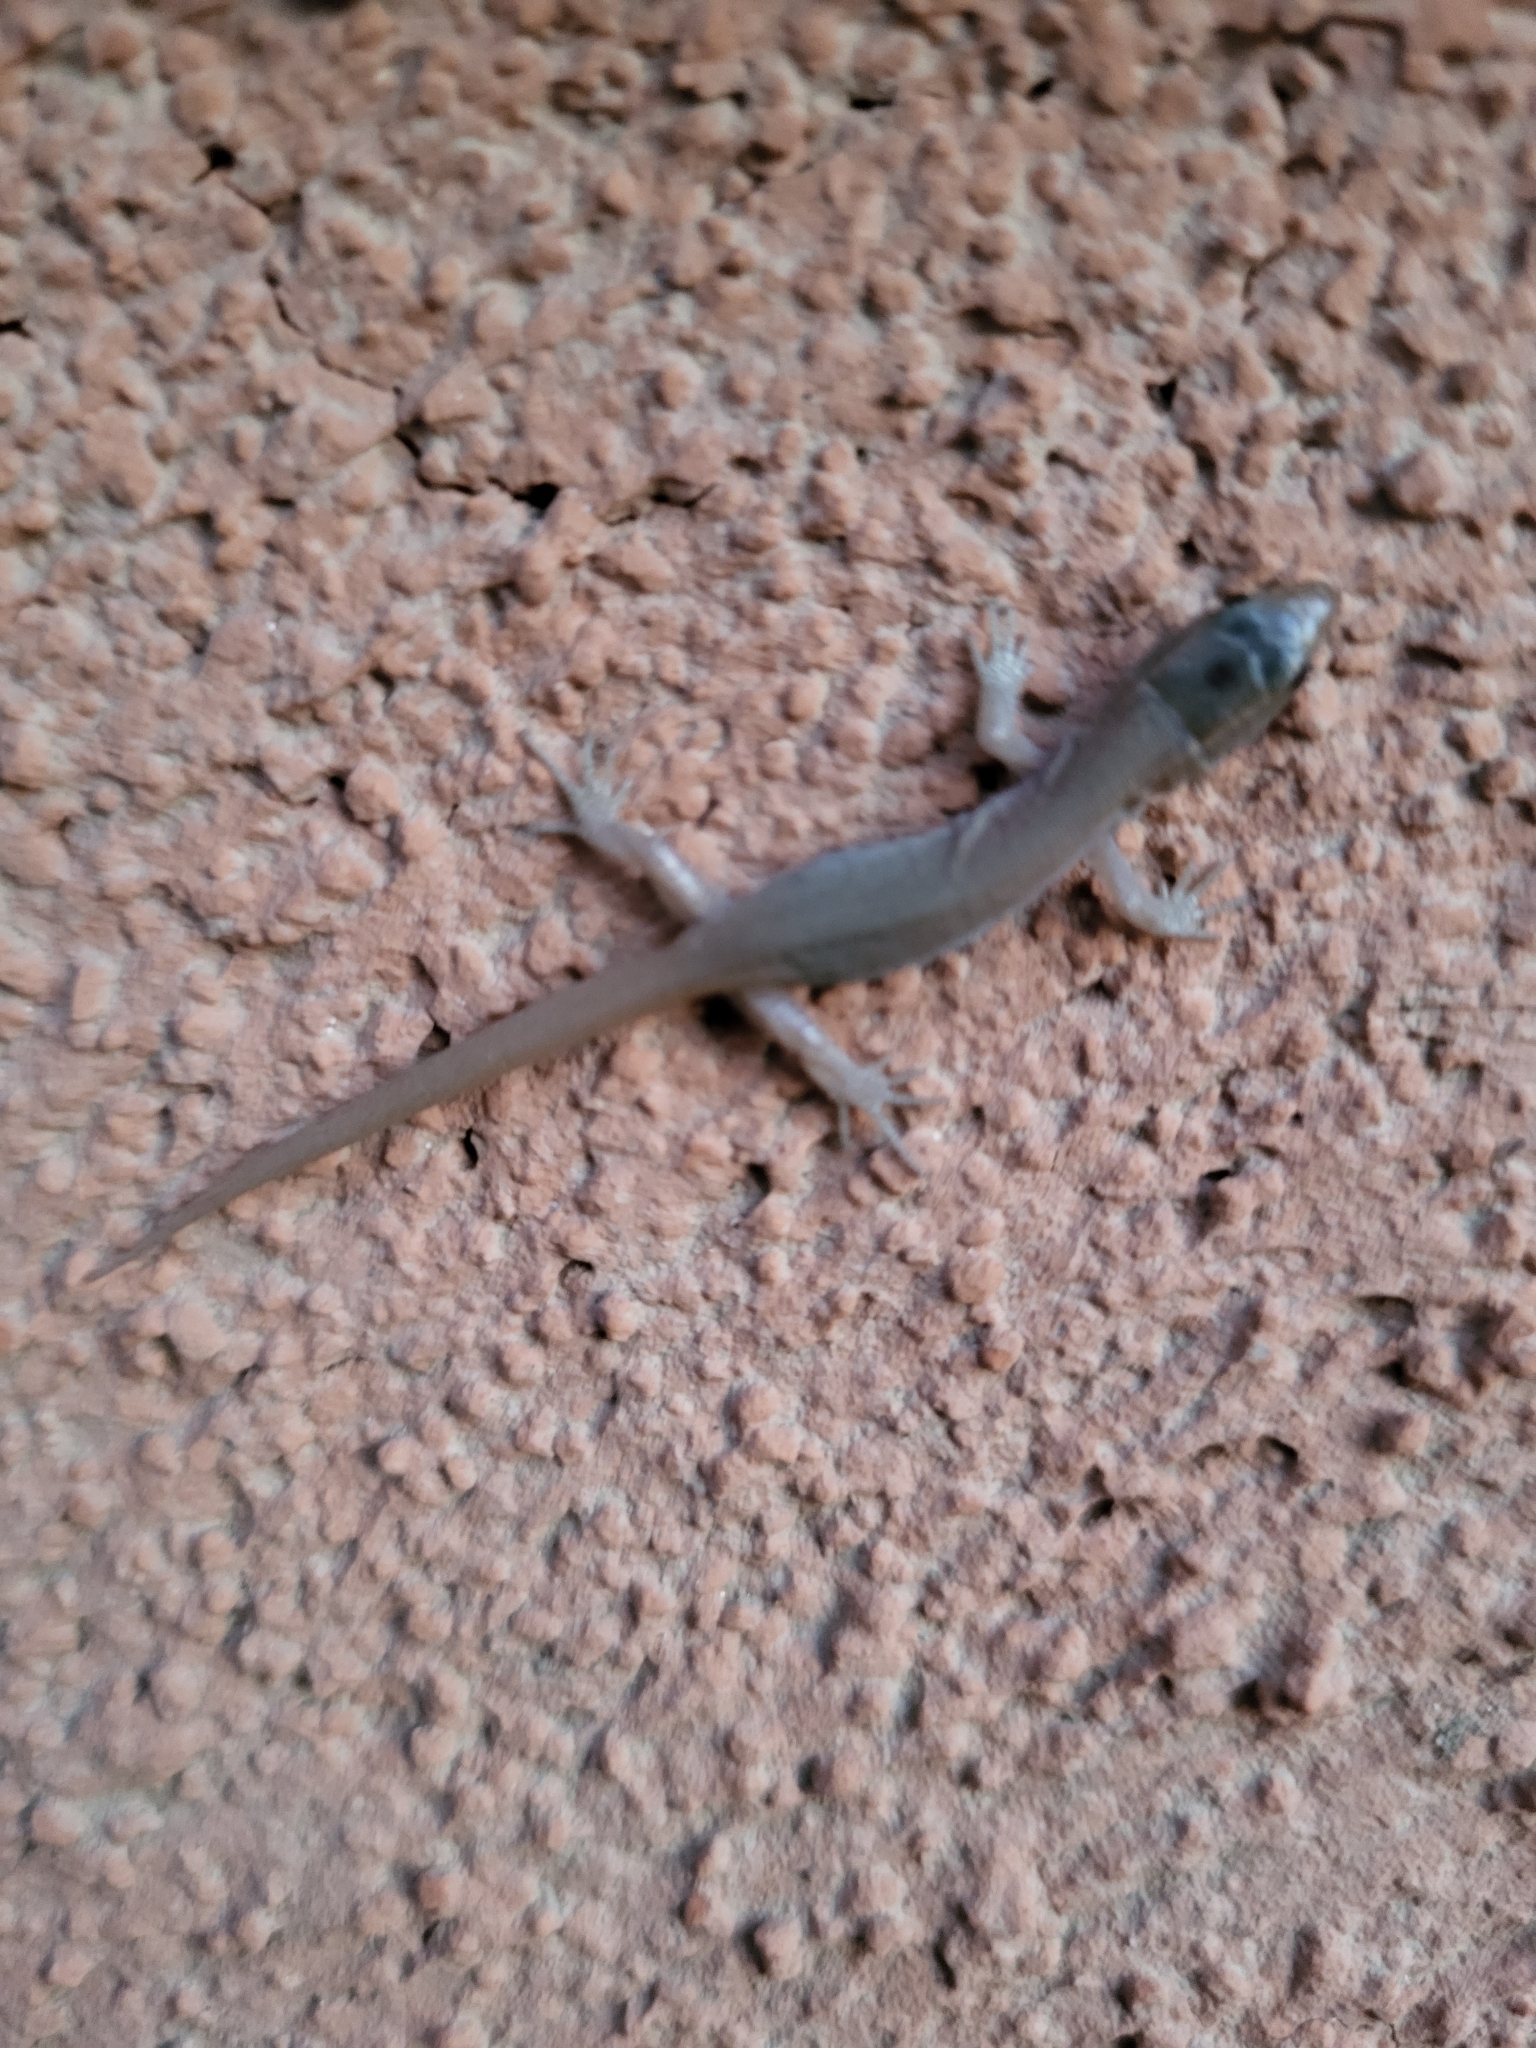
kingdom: Animalia
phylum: Chordata
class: Squamata
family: Xantusiidae
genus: Xantusia
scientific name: Xantusia vigilis
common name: Desert night lizard
